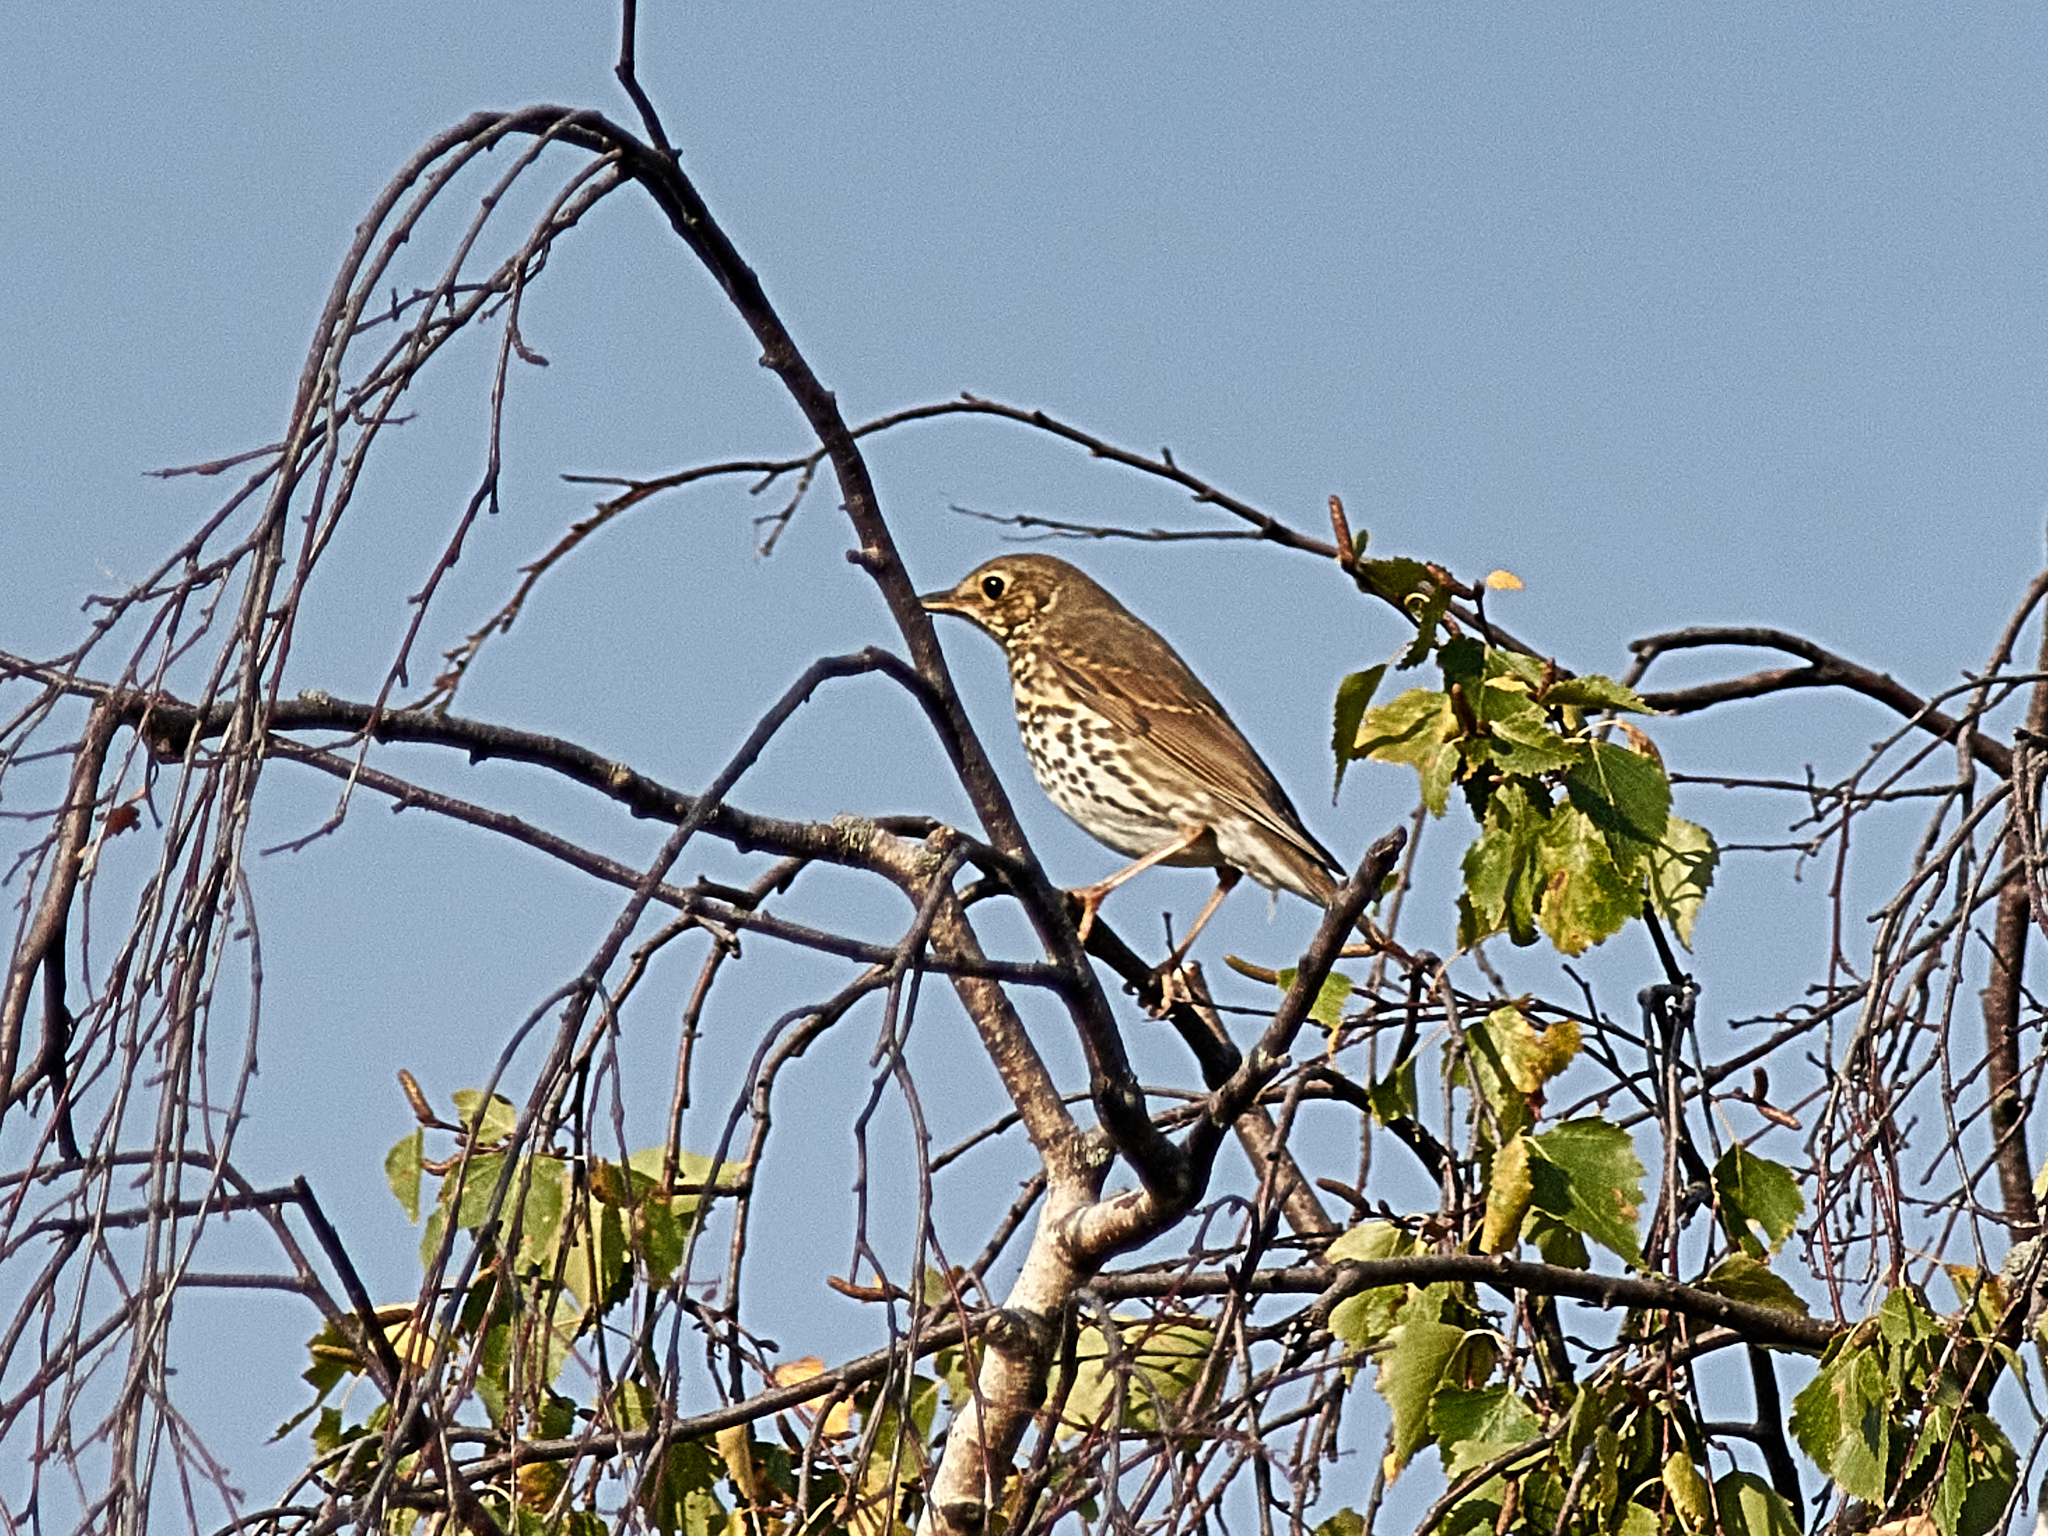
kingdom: Animalia
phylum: Chordata
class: Aves
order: Passeriformes
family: Turdidae
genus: Turdus
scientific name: Turdus philomelos
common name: Song thrush
